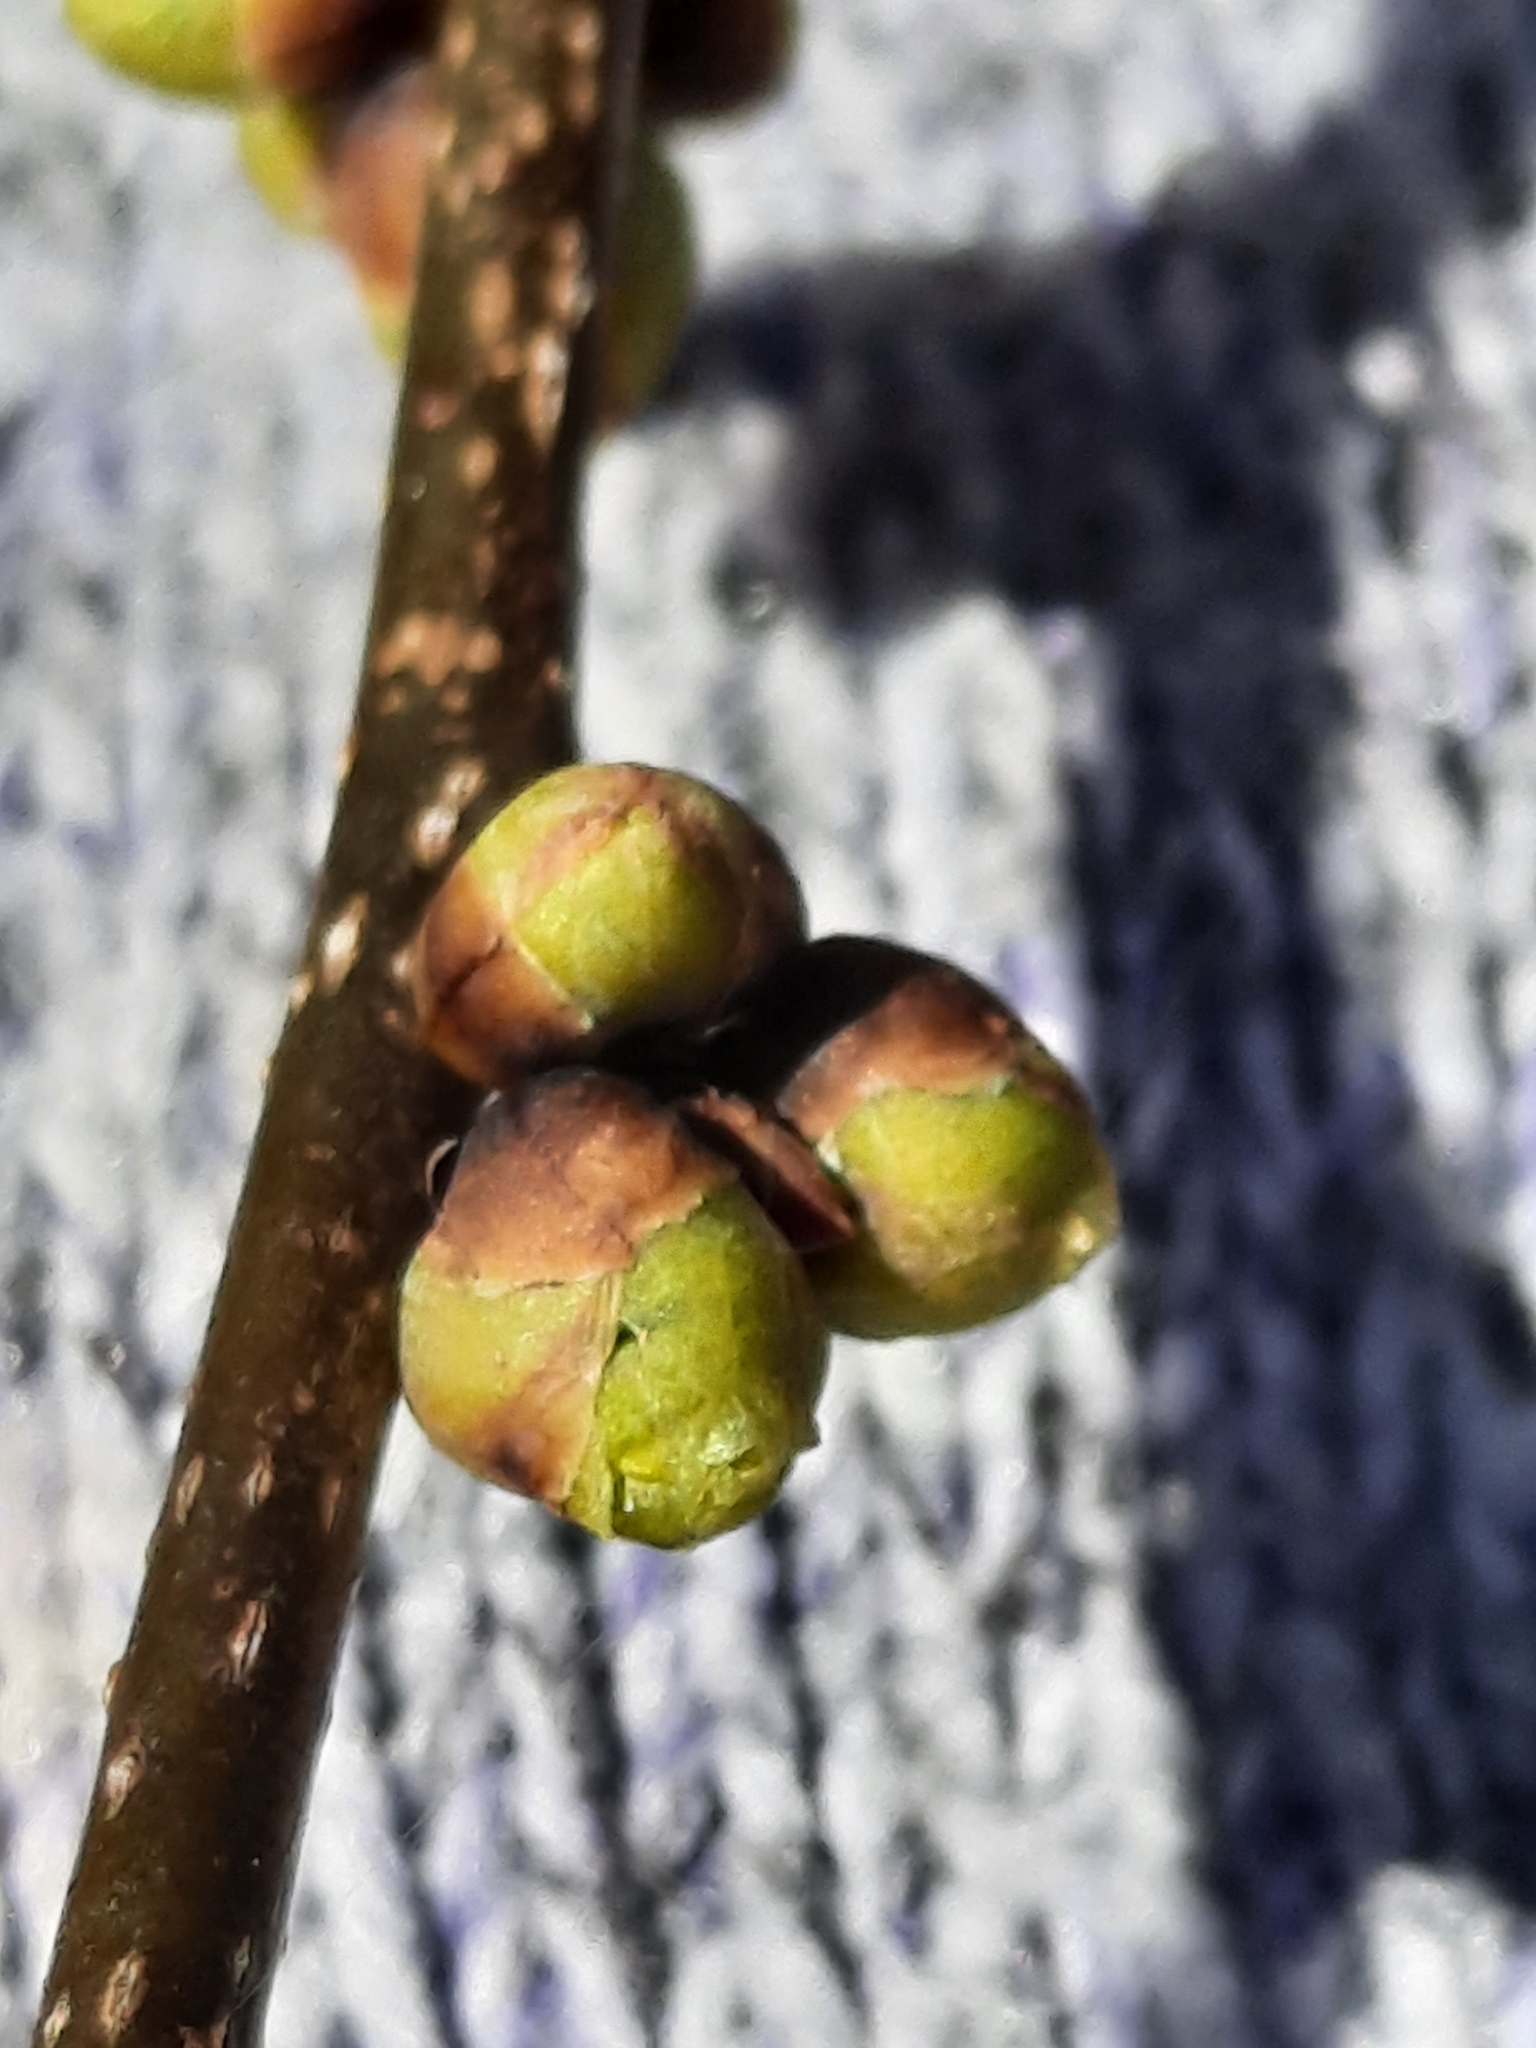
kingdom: Plantae
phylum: Tracheophyta
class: Magnoliopsida
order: Laurales
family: Lauraceae
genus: Lindera
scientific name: Lindera benzoin
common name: Spicebush
